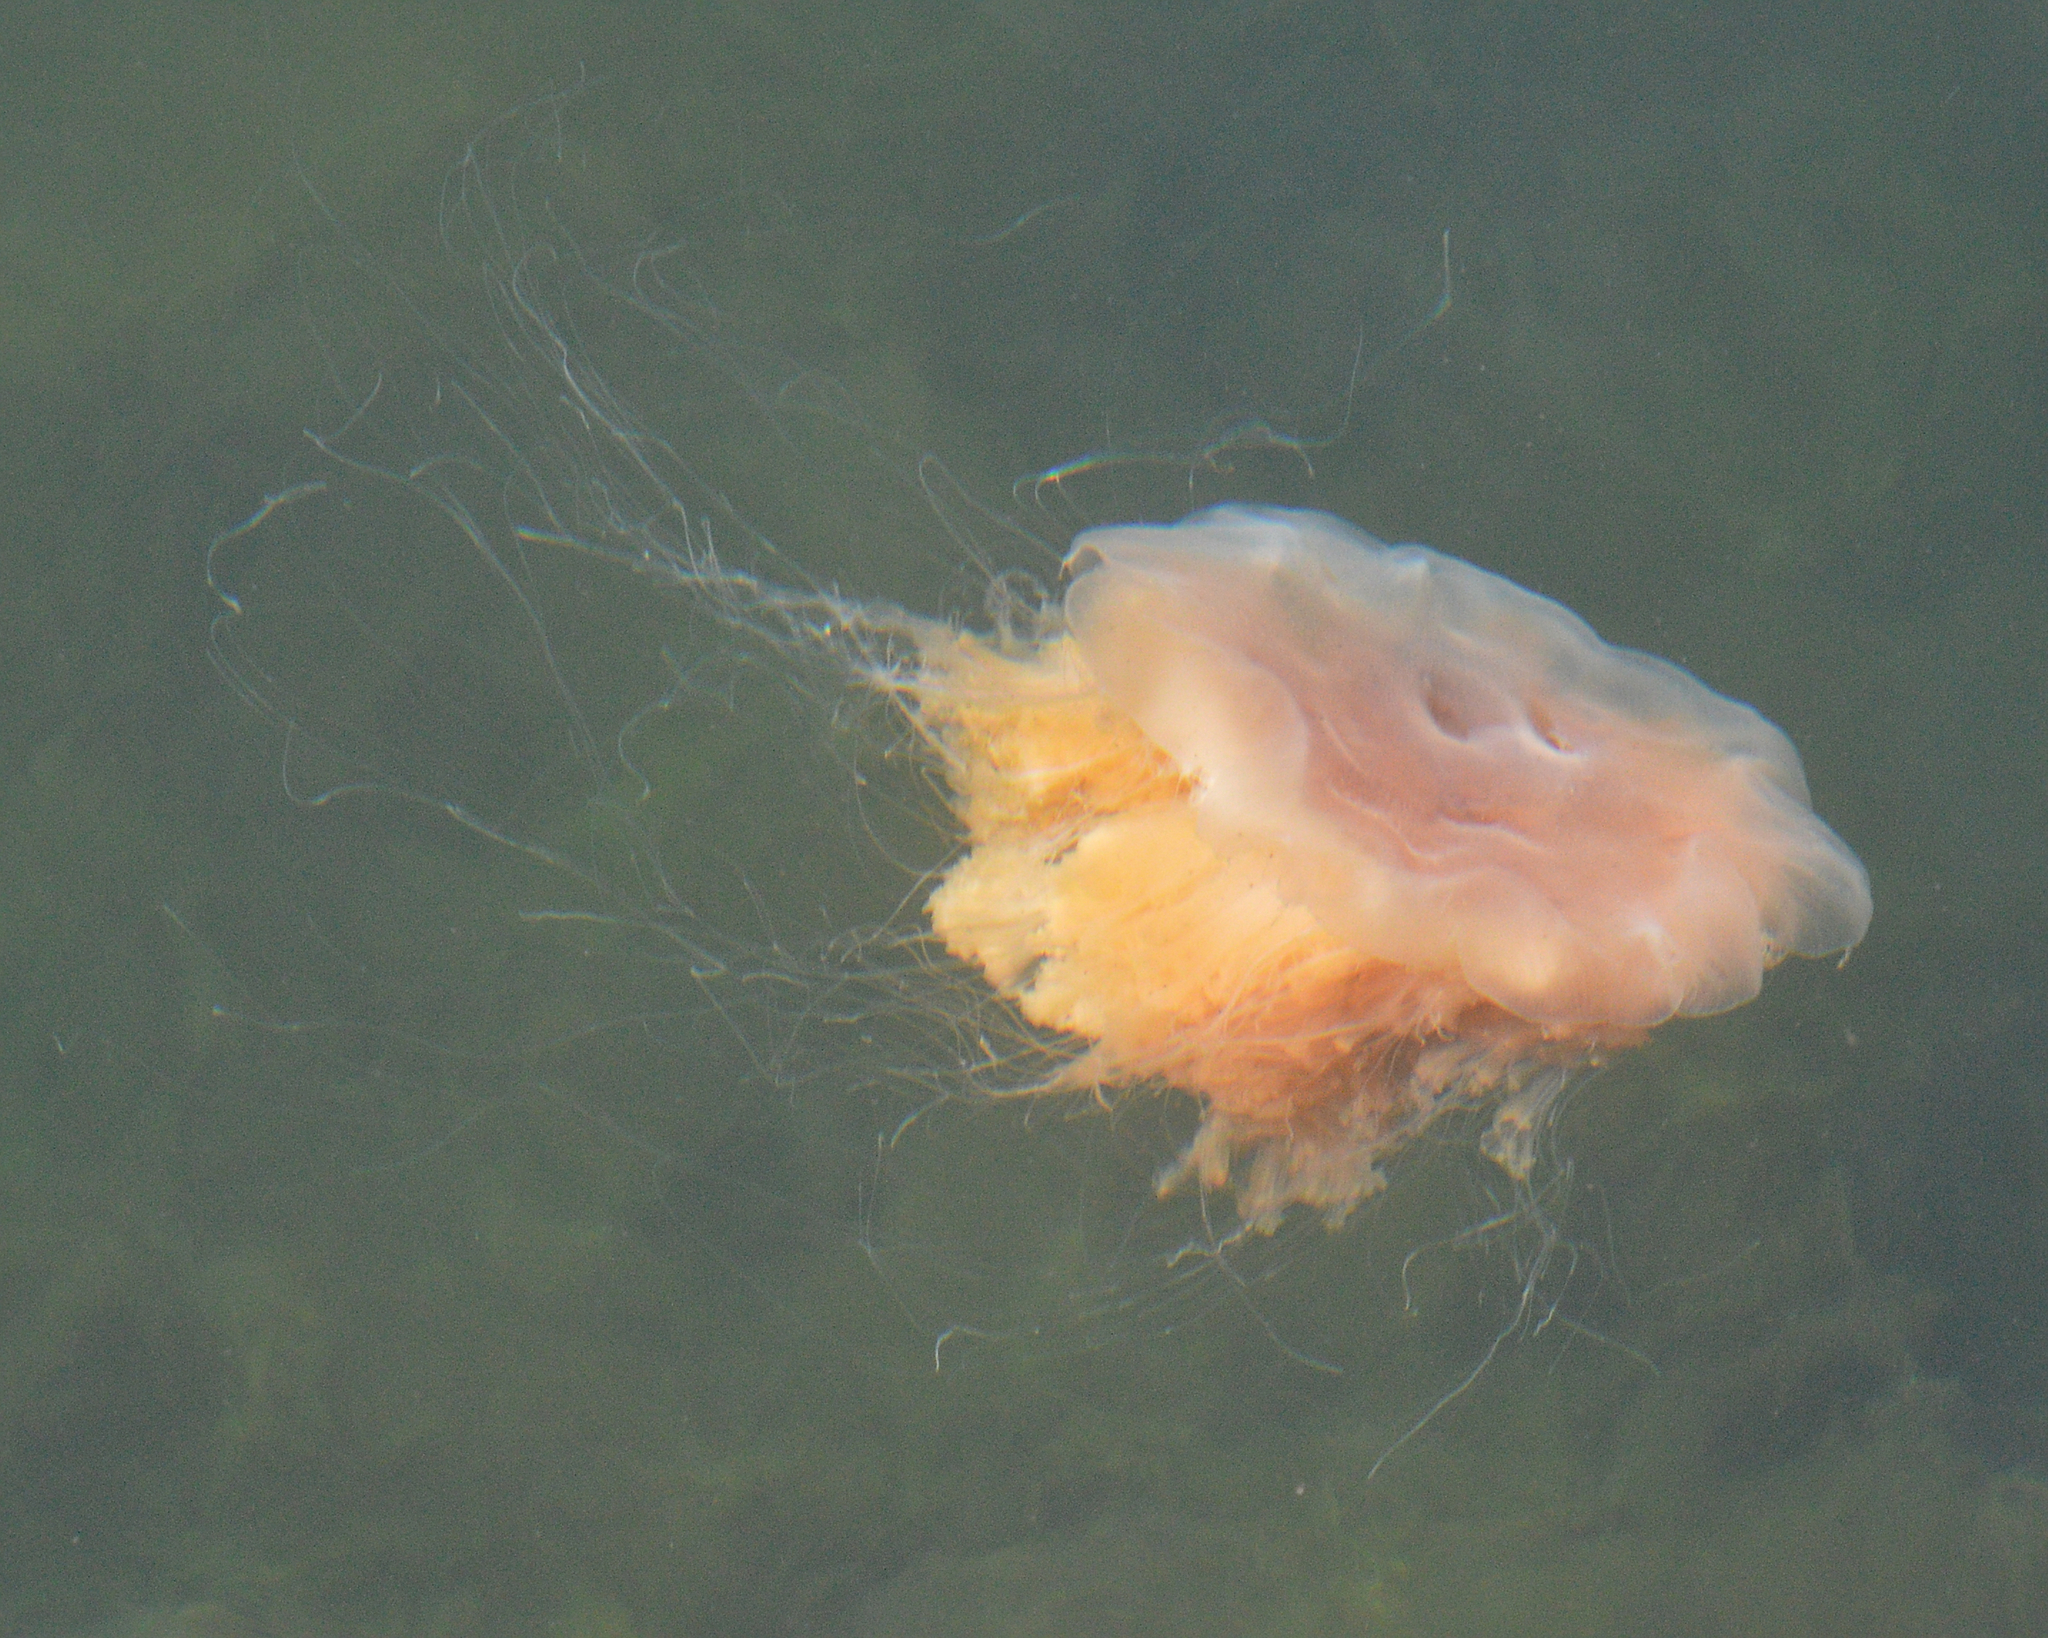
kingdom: Animalia
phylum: Cnidaria
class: Scyphozoa
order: Semaeostomeae
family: Cyaneidae
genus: Cyanea
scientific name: Cyanea capillata
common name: Lion's mane jellyfish
